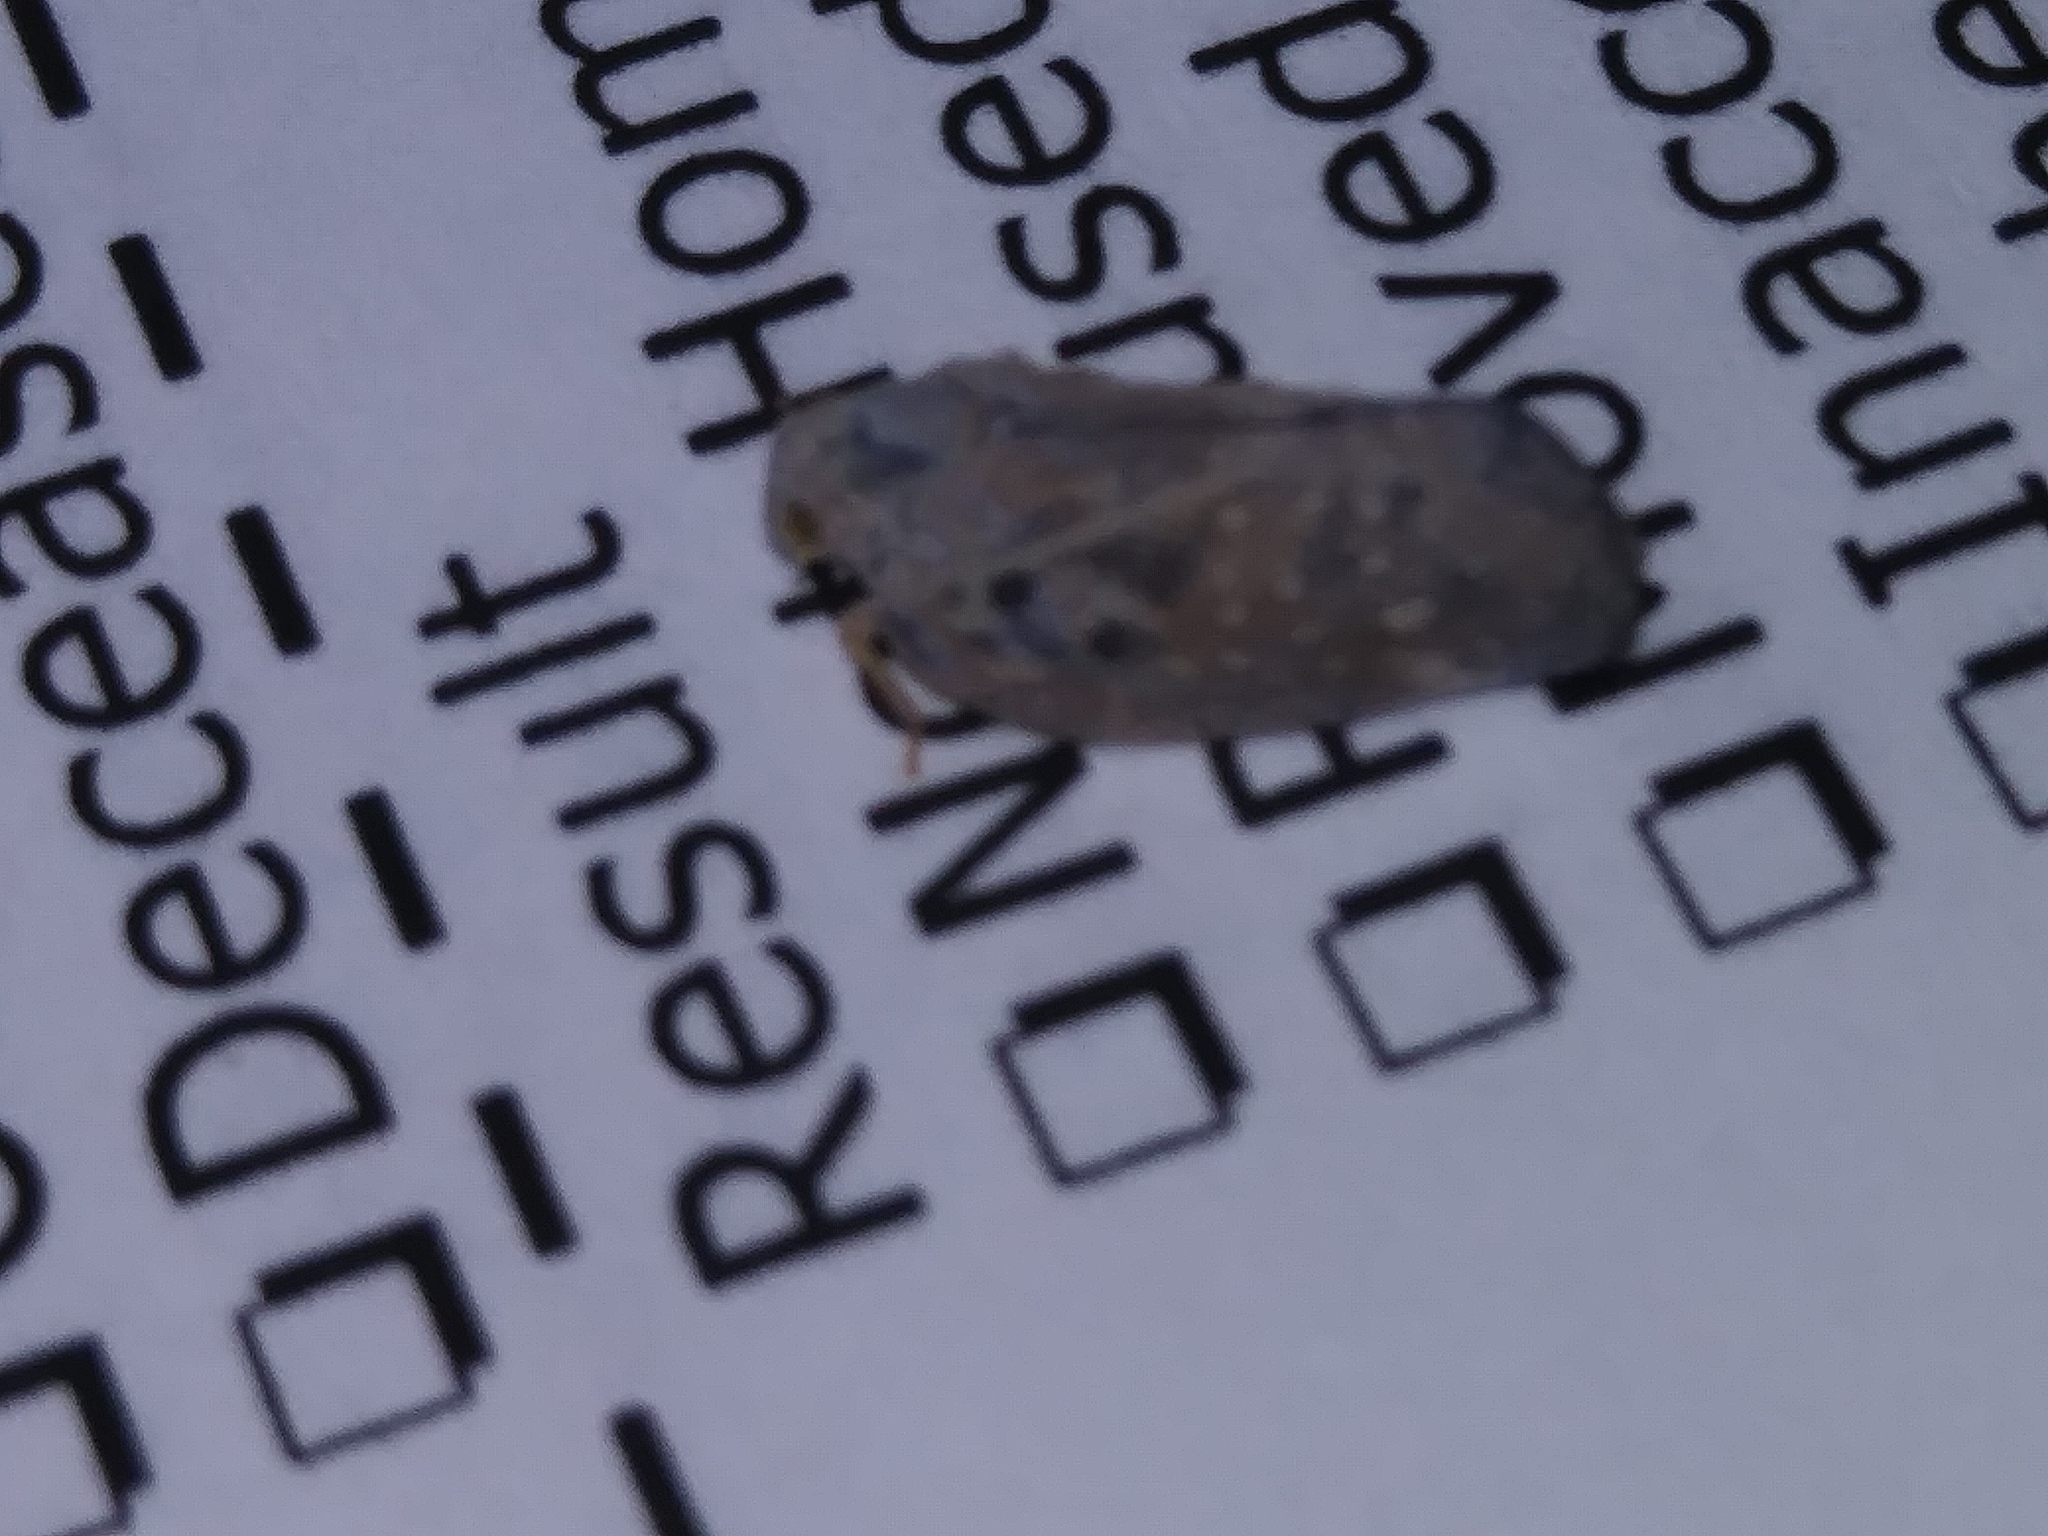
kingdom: Animalia
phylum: Arthropoda
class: Insecta
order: Hemiptera
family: Flatidae
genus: Metcalfa
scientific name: Metcalfa pruinosa
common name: Citrus flatid planthopper
